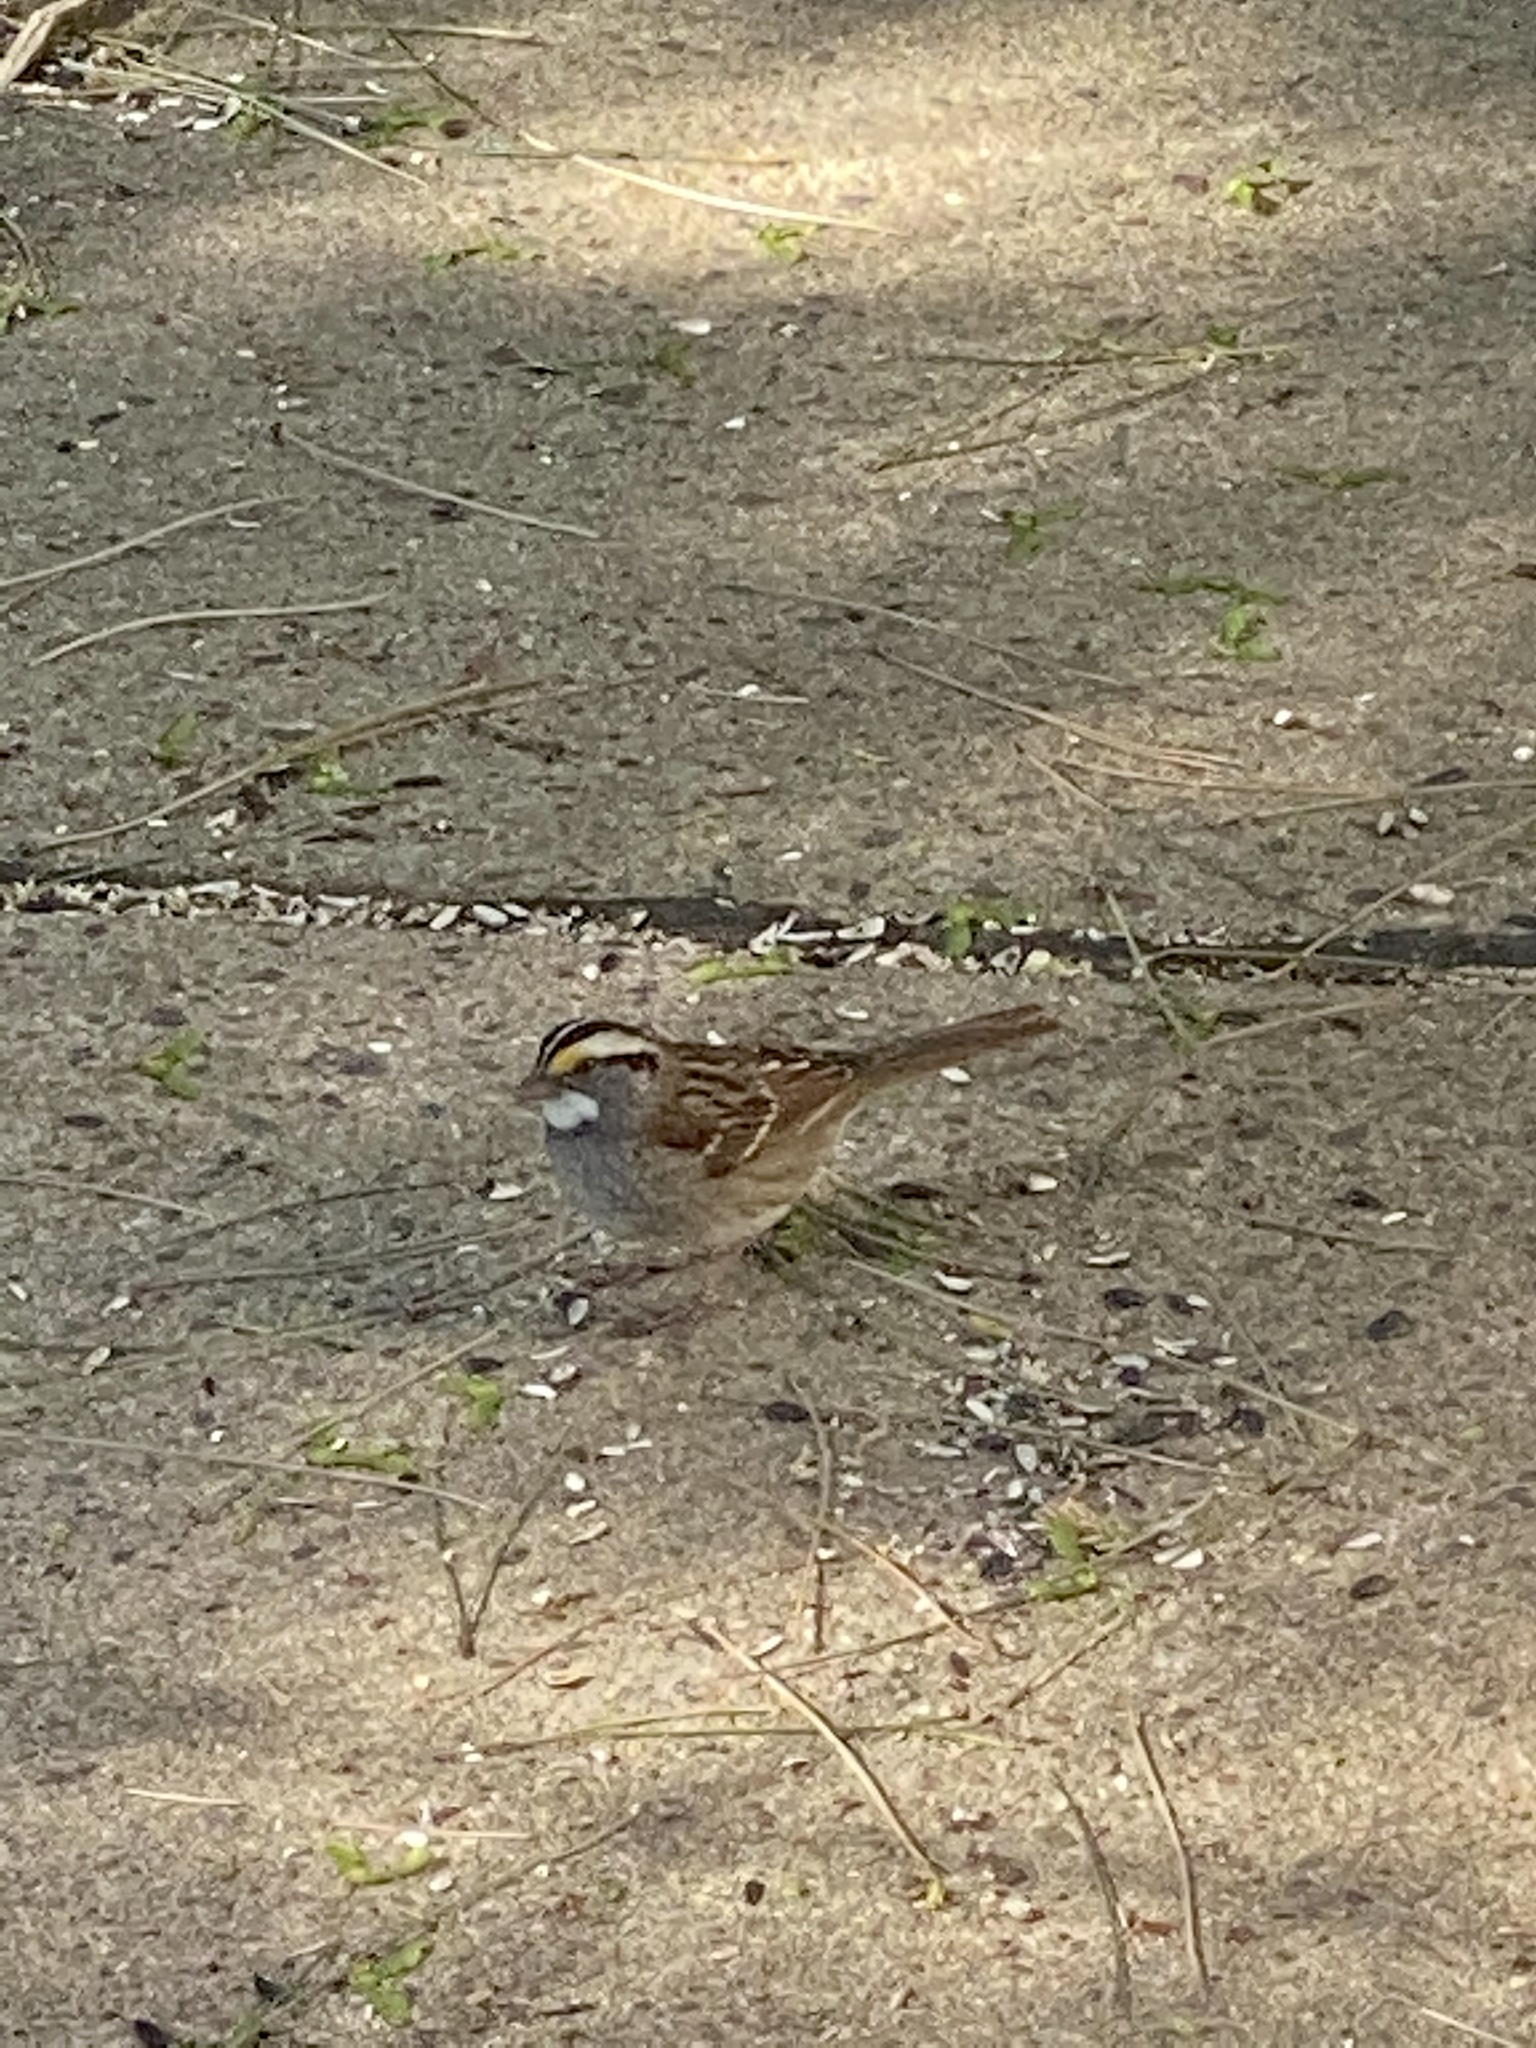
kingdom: Animalia
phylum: Chordata
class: Aves
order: Passeriformes
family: Passerellidae
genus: Zonotrichia
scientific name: Zonotrichia albicollis
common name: White-throated sparrow
